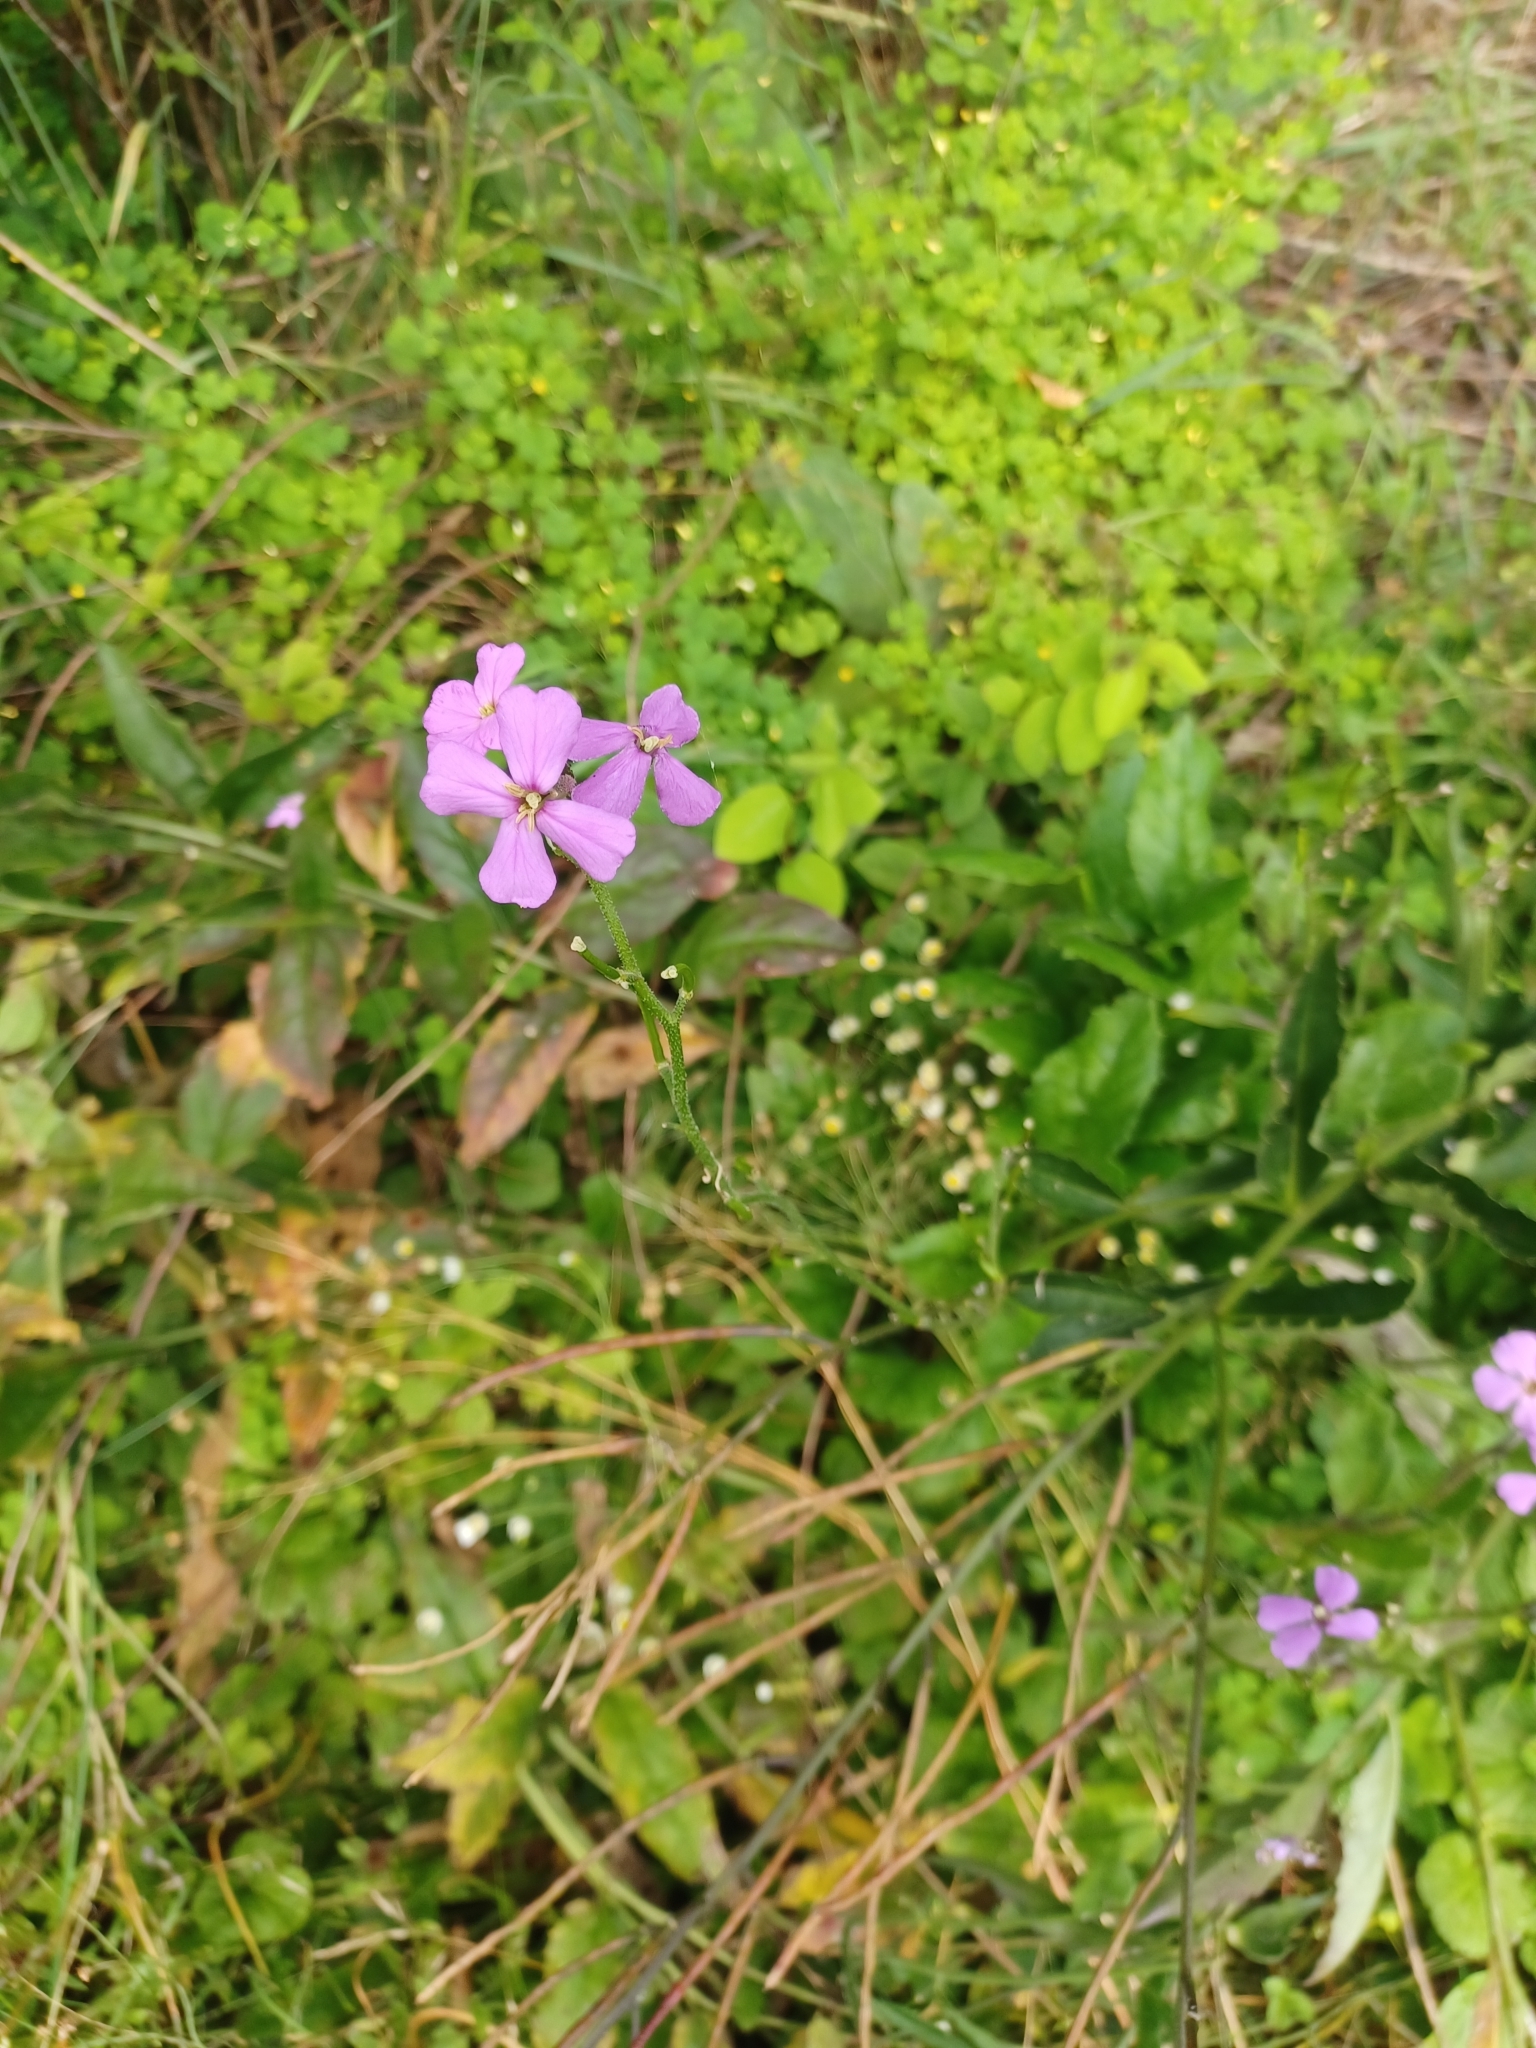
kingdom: Plantae
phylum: Tracheophyta
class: Magnoliopsida
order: Brassicales
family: Brassicaceae
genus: Hesperis
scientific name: Hesperis matronalis
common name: Dame's-violet
